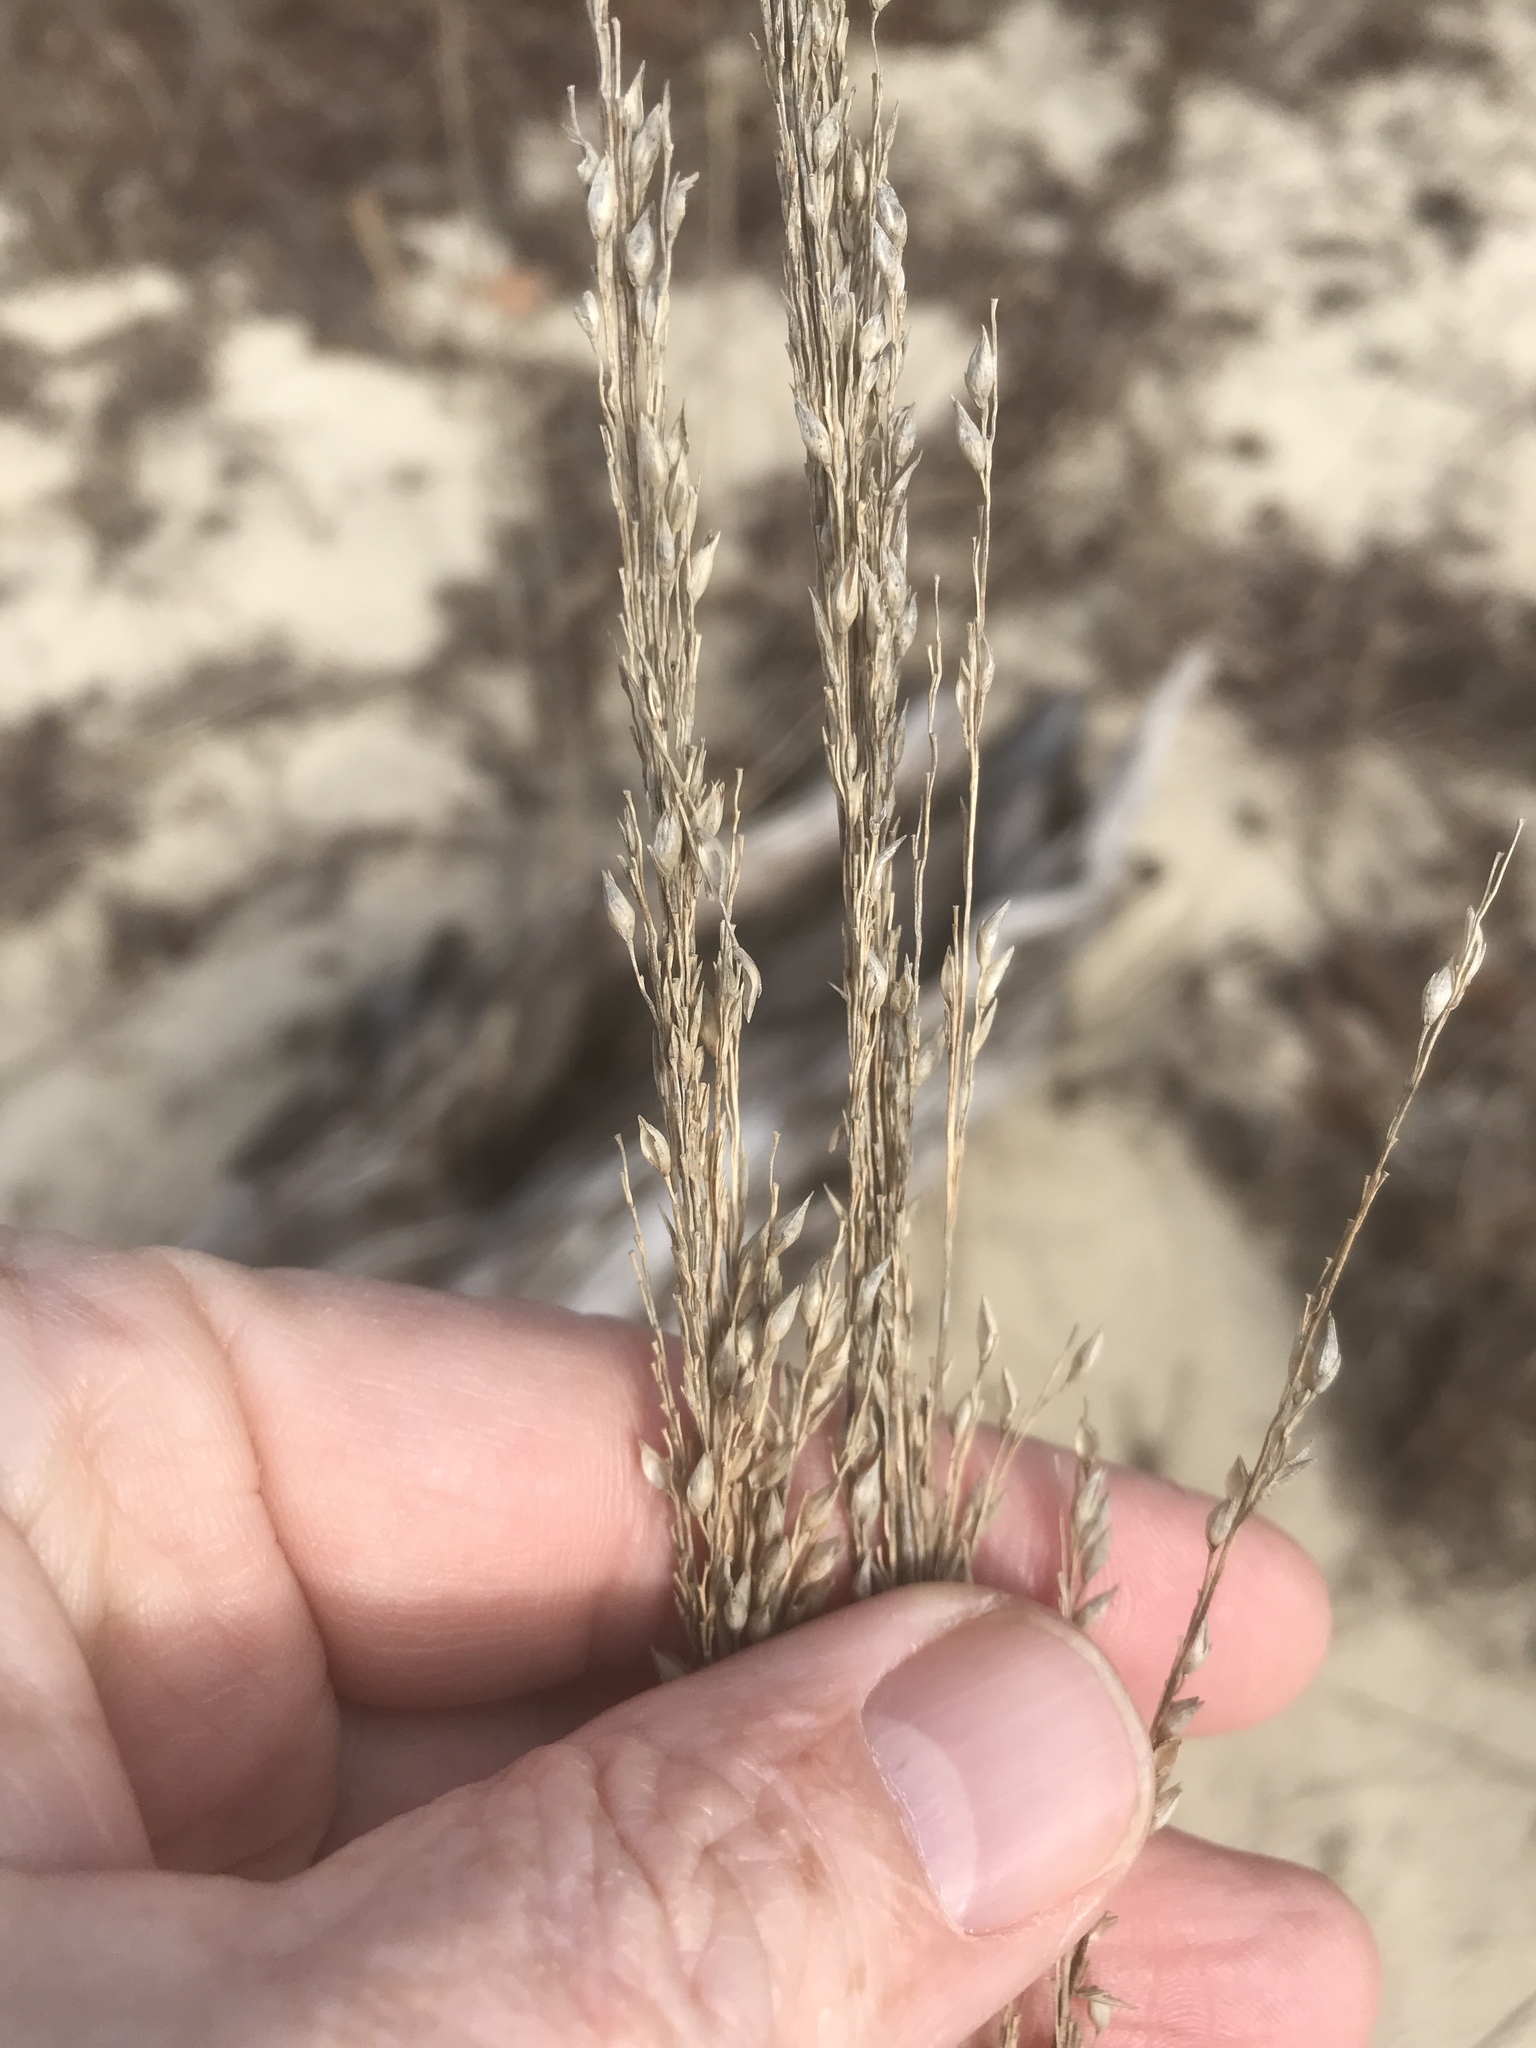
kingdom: Plantae
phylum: Tracheophyta
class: Liliopsida
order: Poales
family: Poaceae
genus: Panicum
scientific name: Panicum amarum
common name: Bitter panicum
